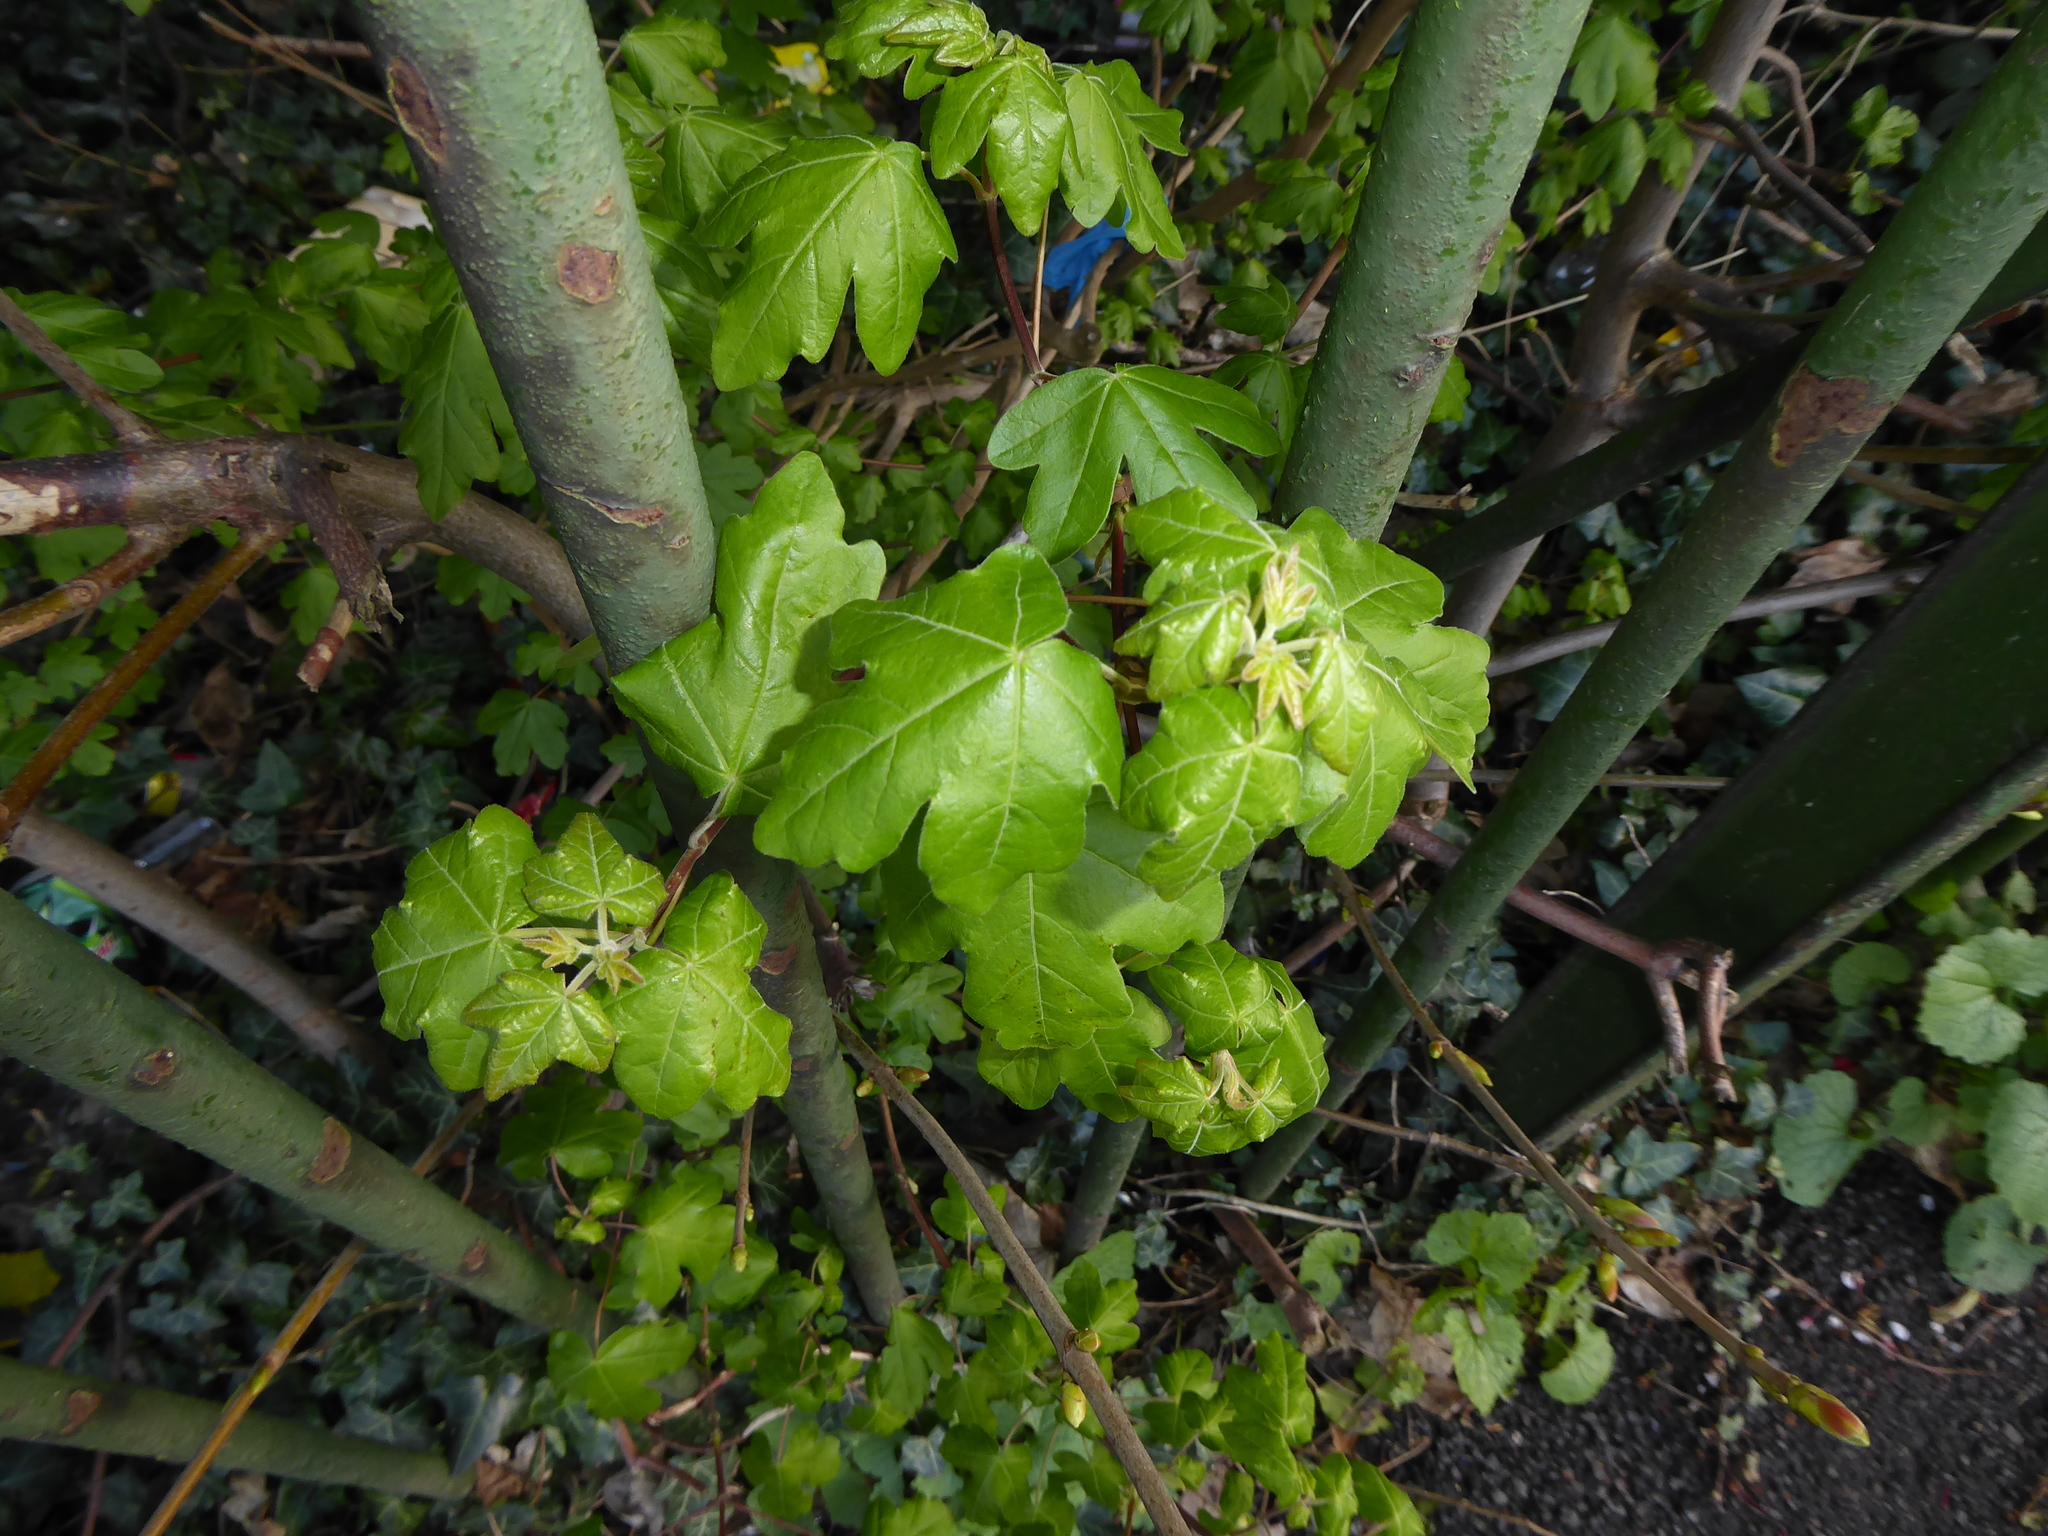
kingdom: Plantae
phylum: Tracheophyta
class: Magnoliopsida
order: Sapindales
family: Sapindaceae
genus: Acer
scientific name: Acer campestre
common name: Field maple
